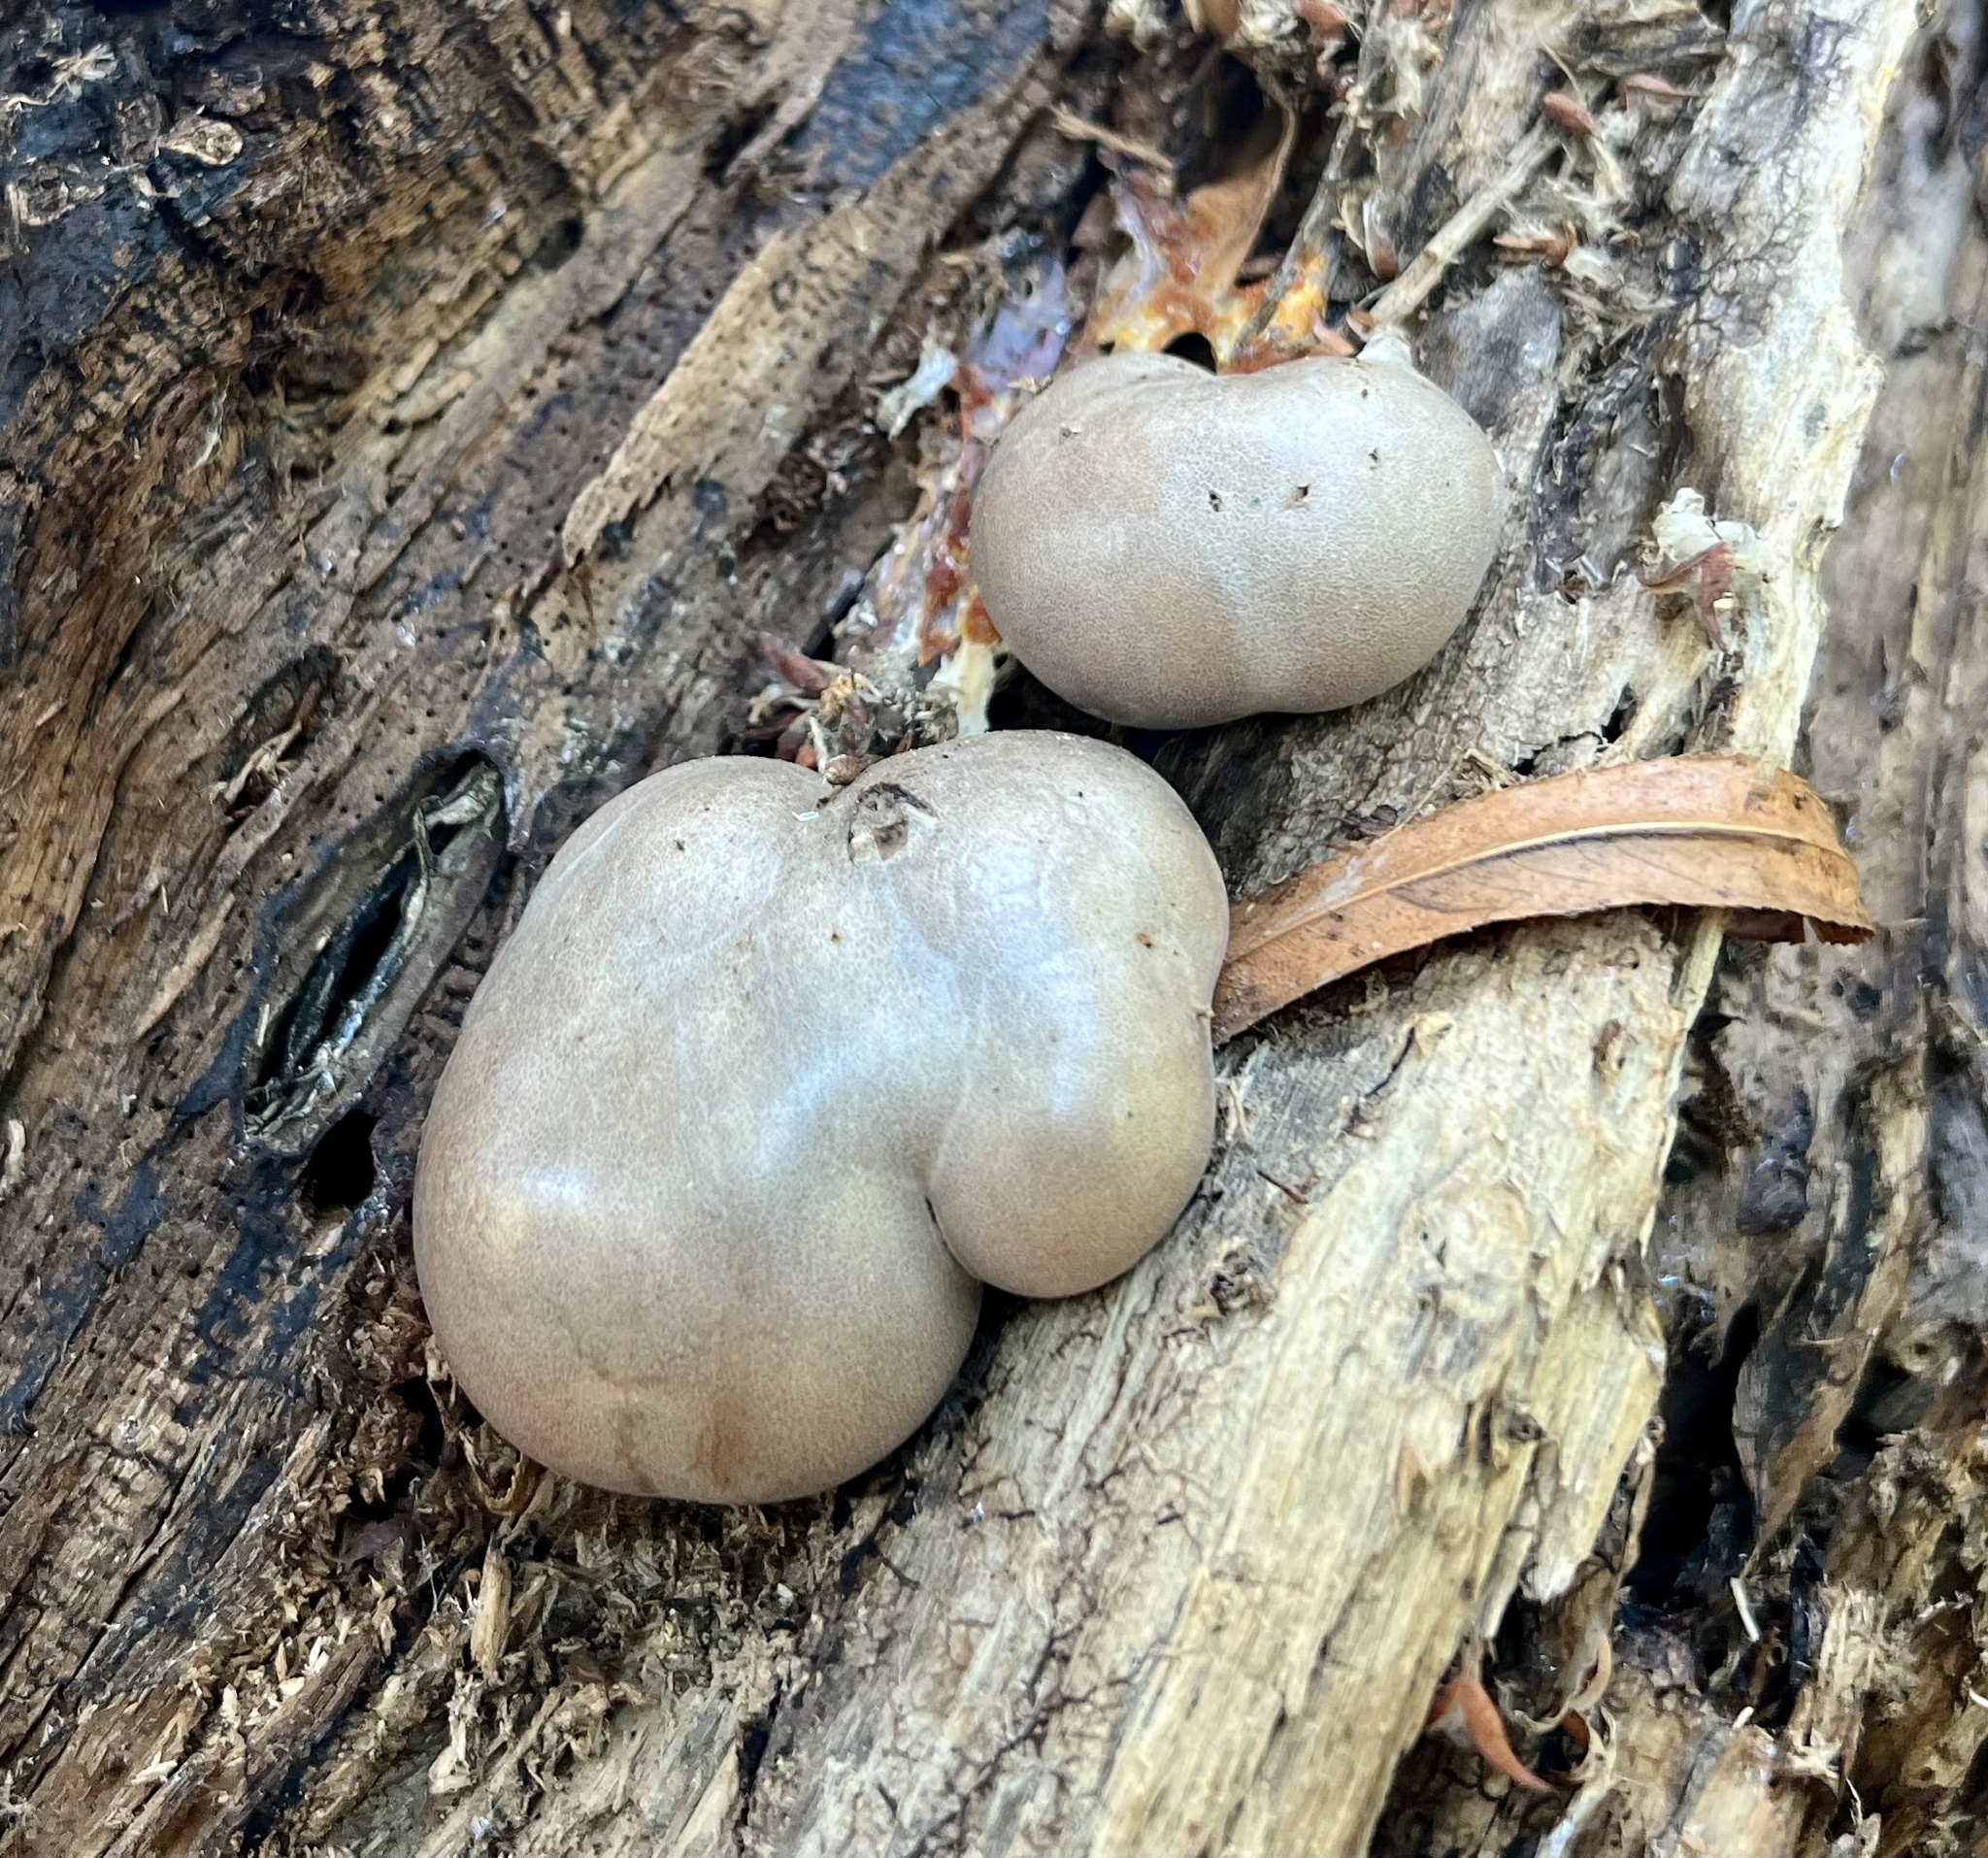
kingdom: Protozoa
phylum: Mycetozoa
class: Myxomycetes
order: Cribrariales
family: Tubiferaceae
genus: Lycogala
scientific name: Lycogala flavofuscum
